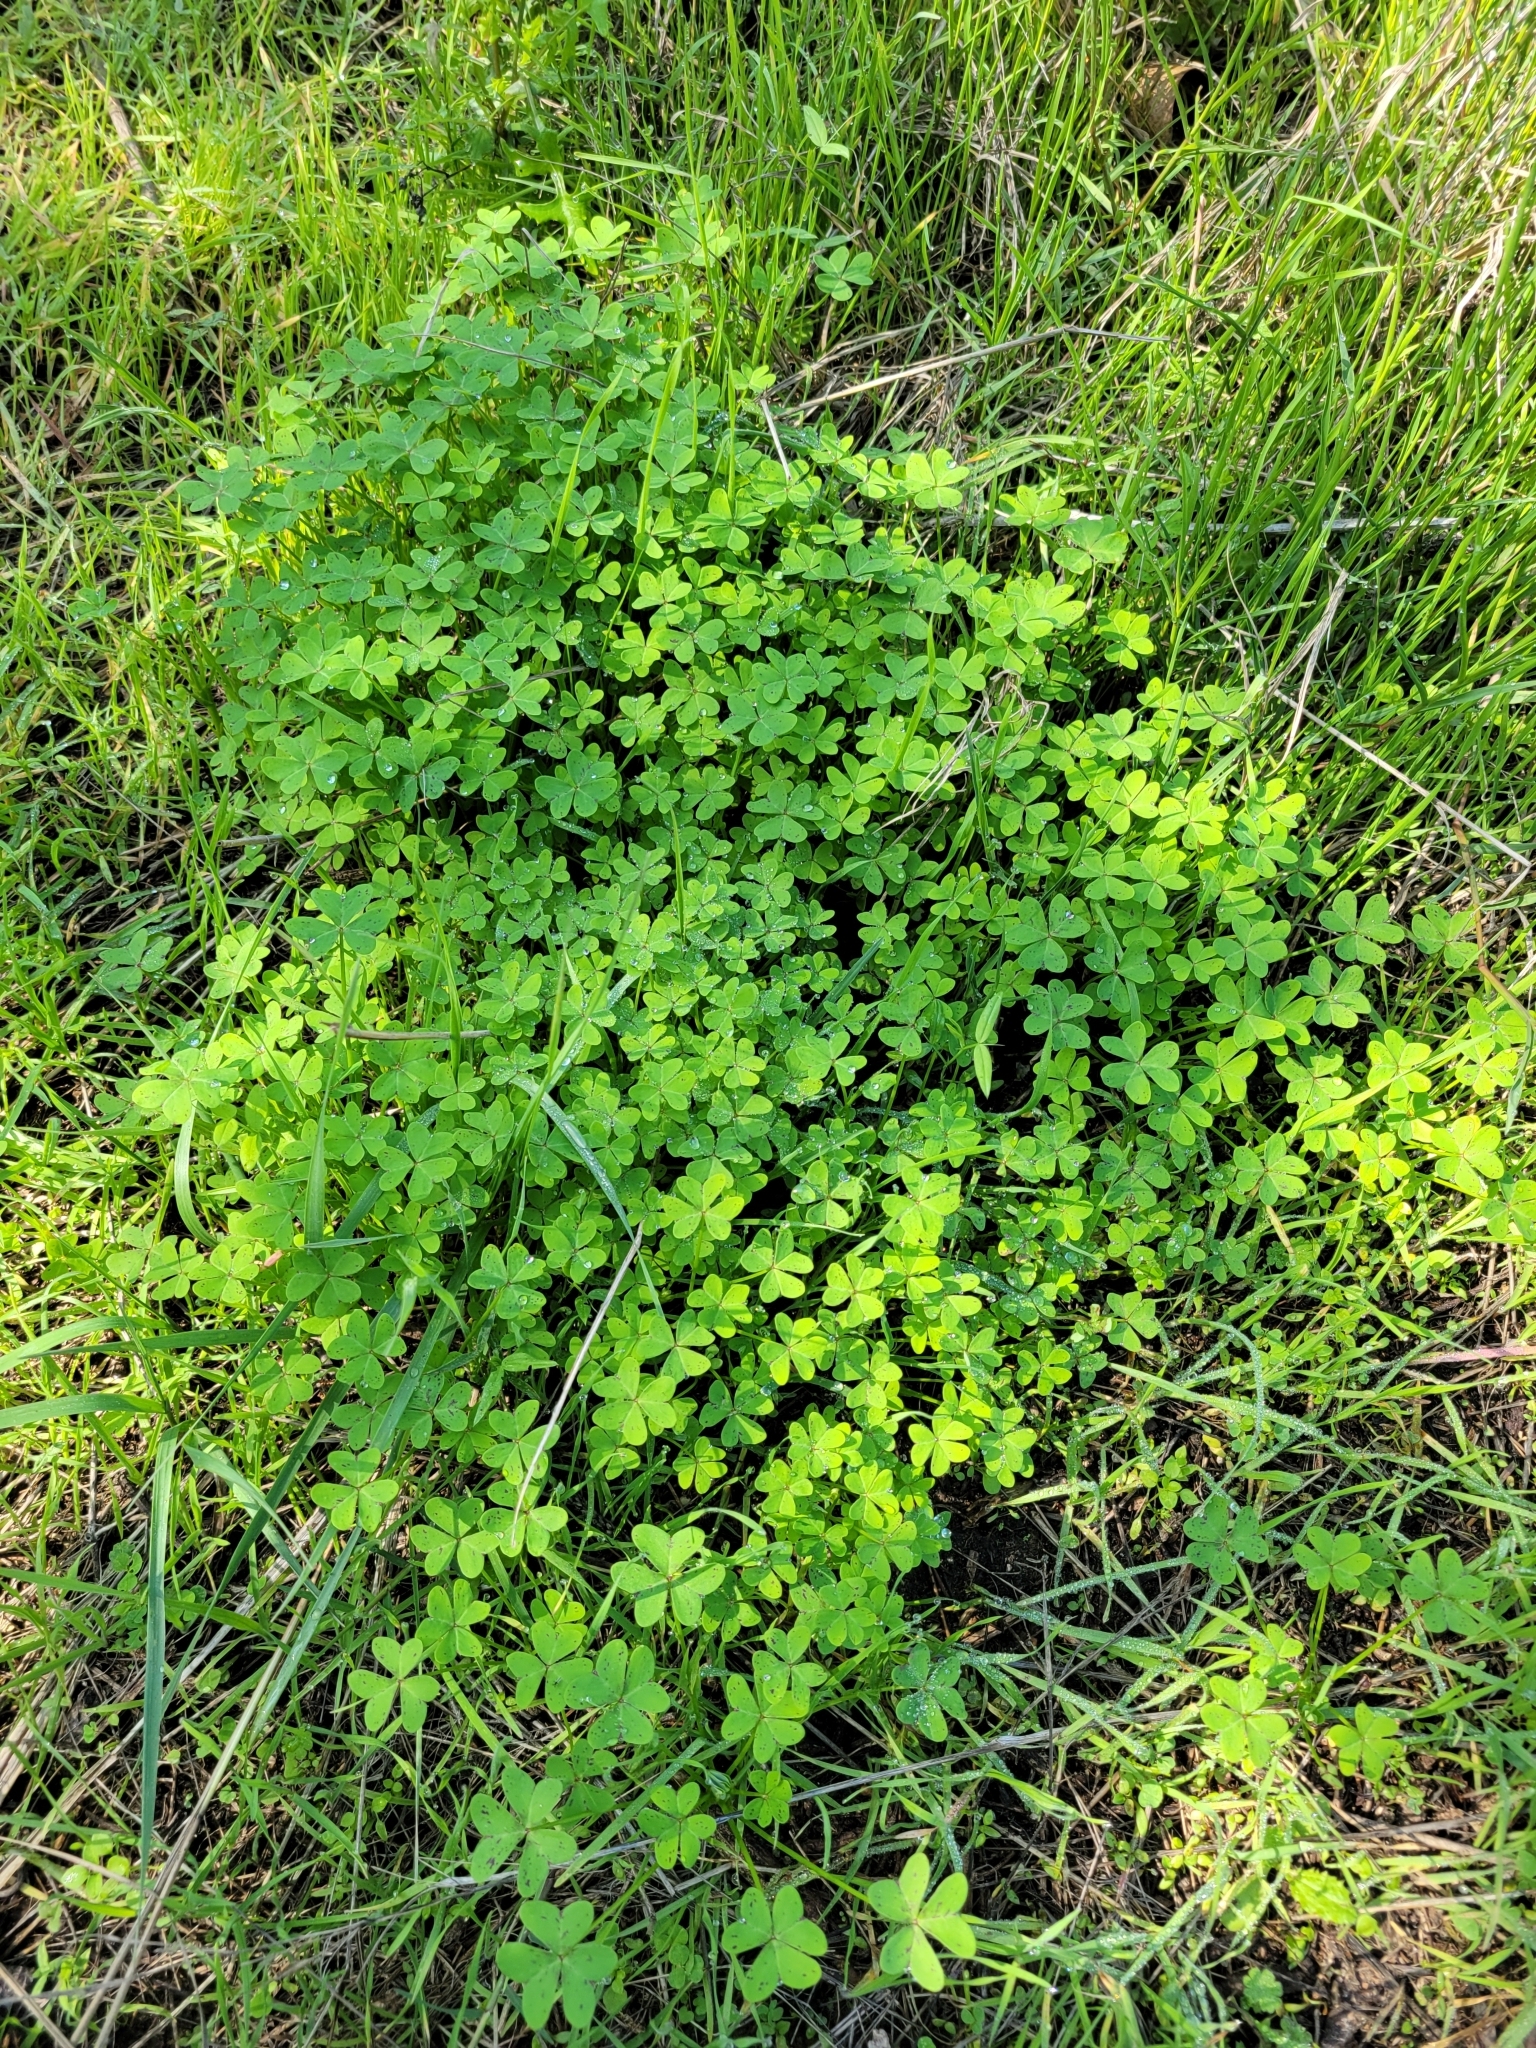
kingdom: Plantae
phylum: Tracheophyta
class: Magnoliopsida
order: Oxalidales
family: Oxalidaceae
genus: Oxalis
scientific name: Oxalis pes-caprae
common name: Bermuda-buttercup
